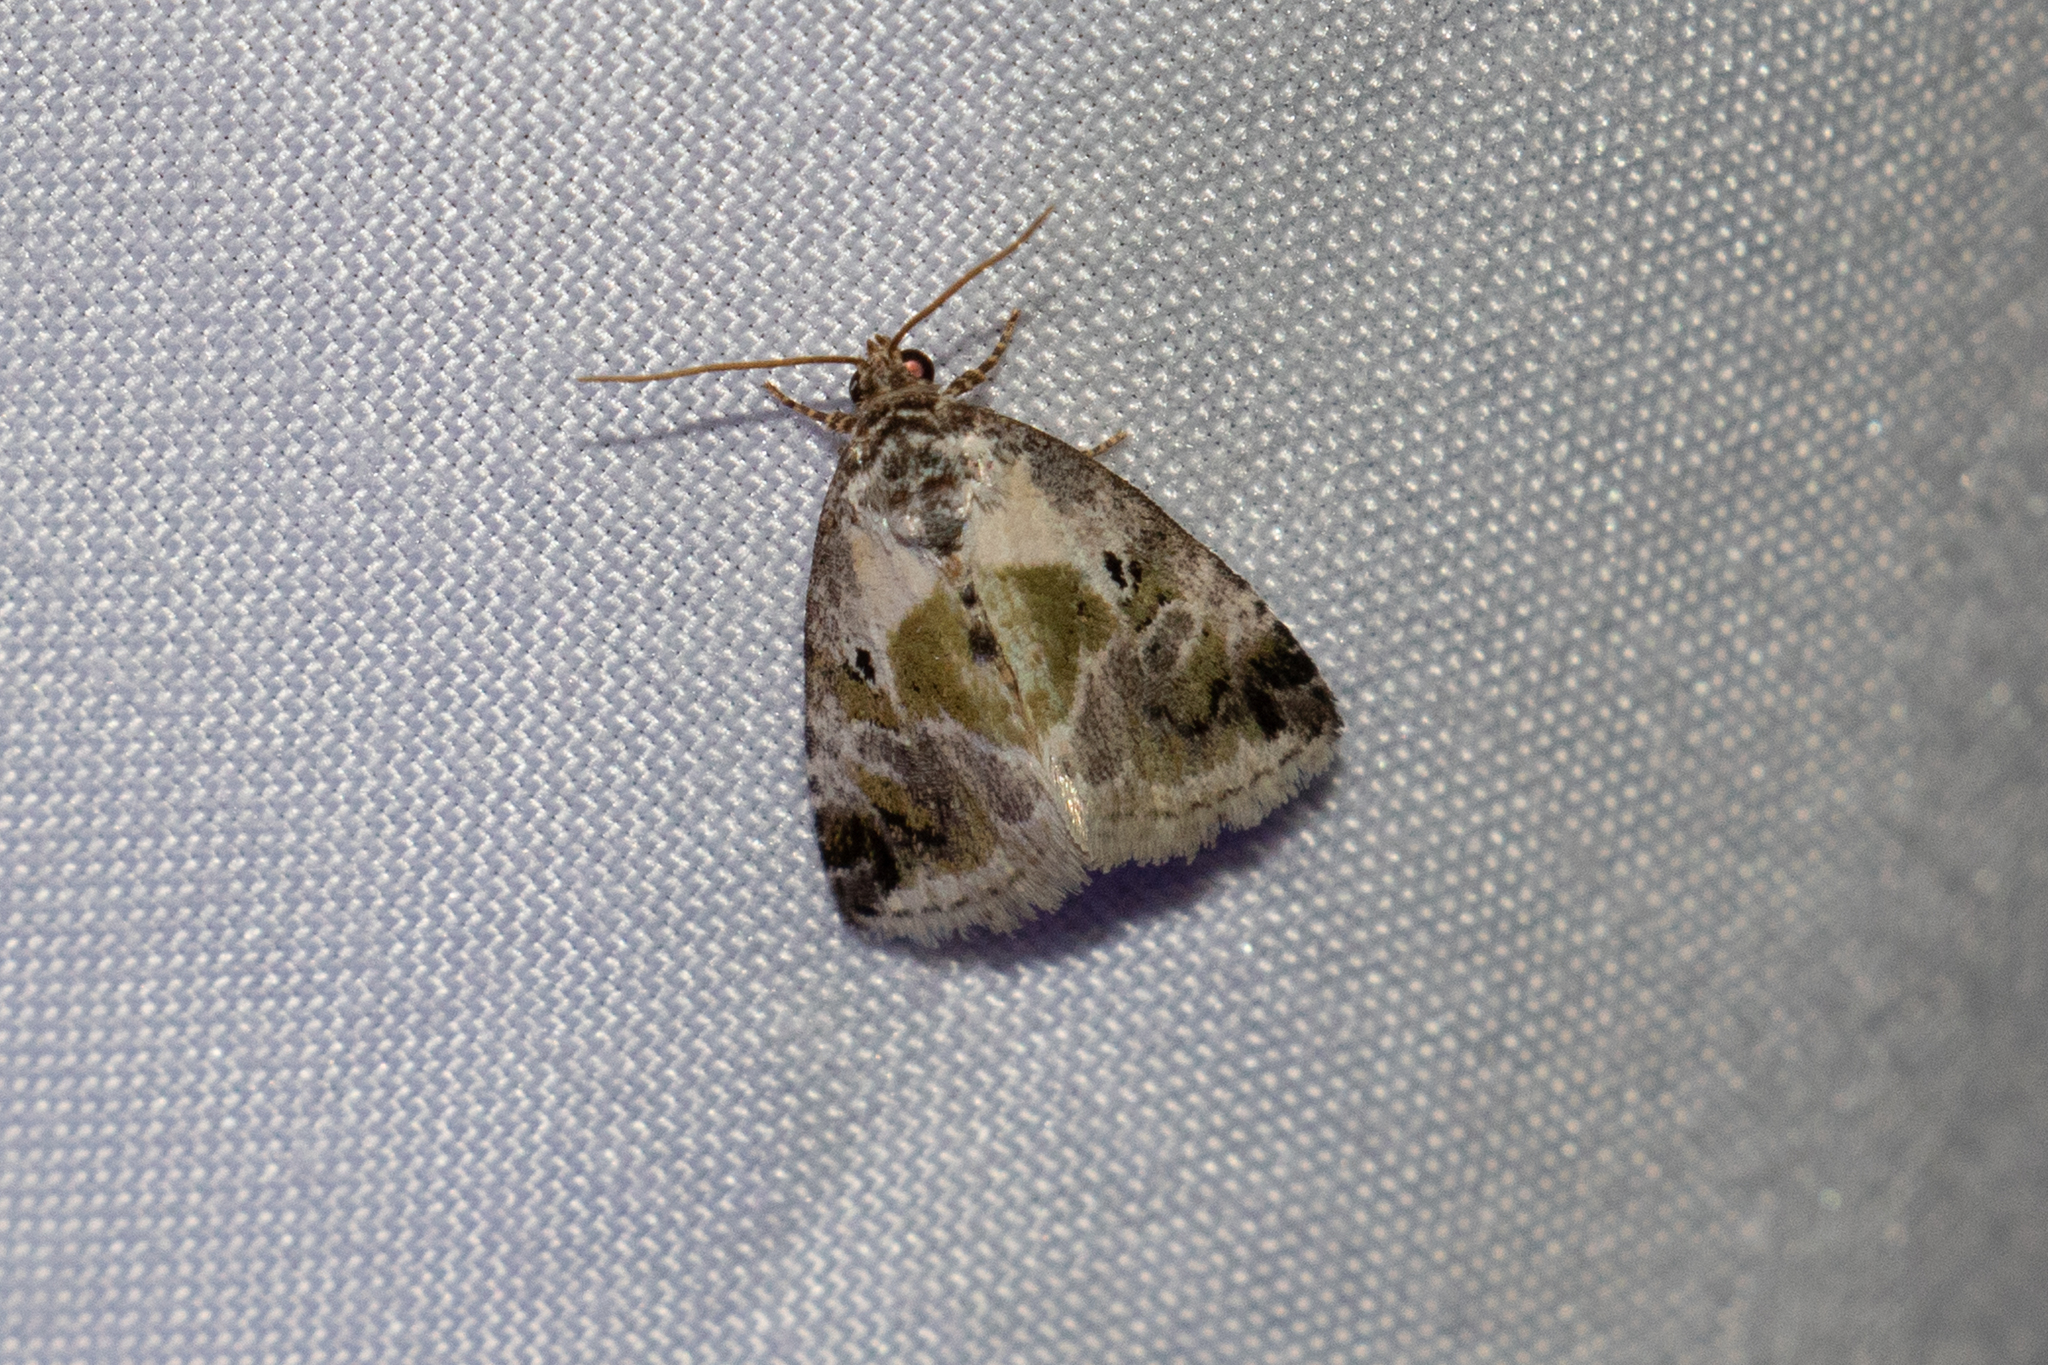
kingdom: Animalia
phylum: Arthropoda
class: Insecta
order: Lepidoptera
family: Noctuidae
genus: Maliattha
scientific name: Maliattha synochitis
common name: Black-dotted glyph
